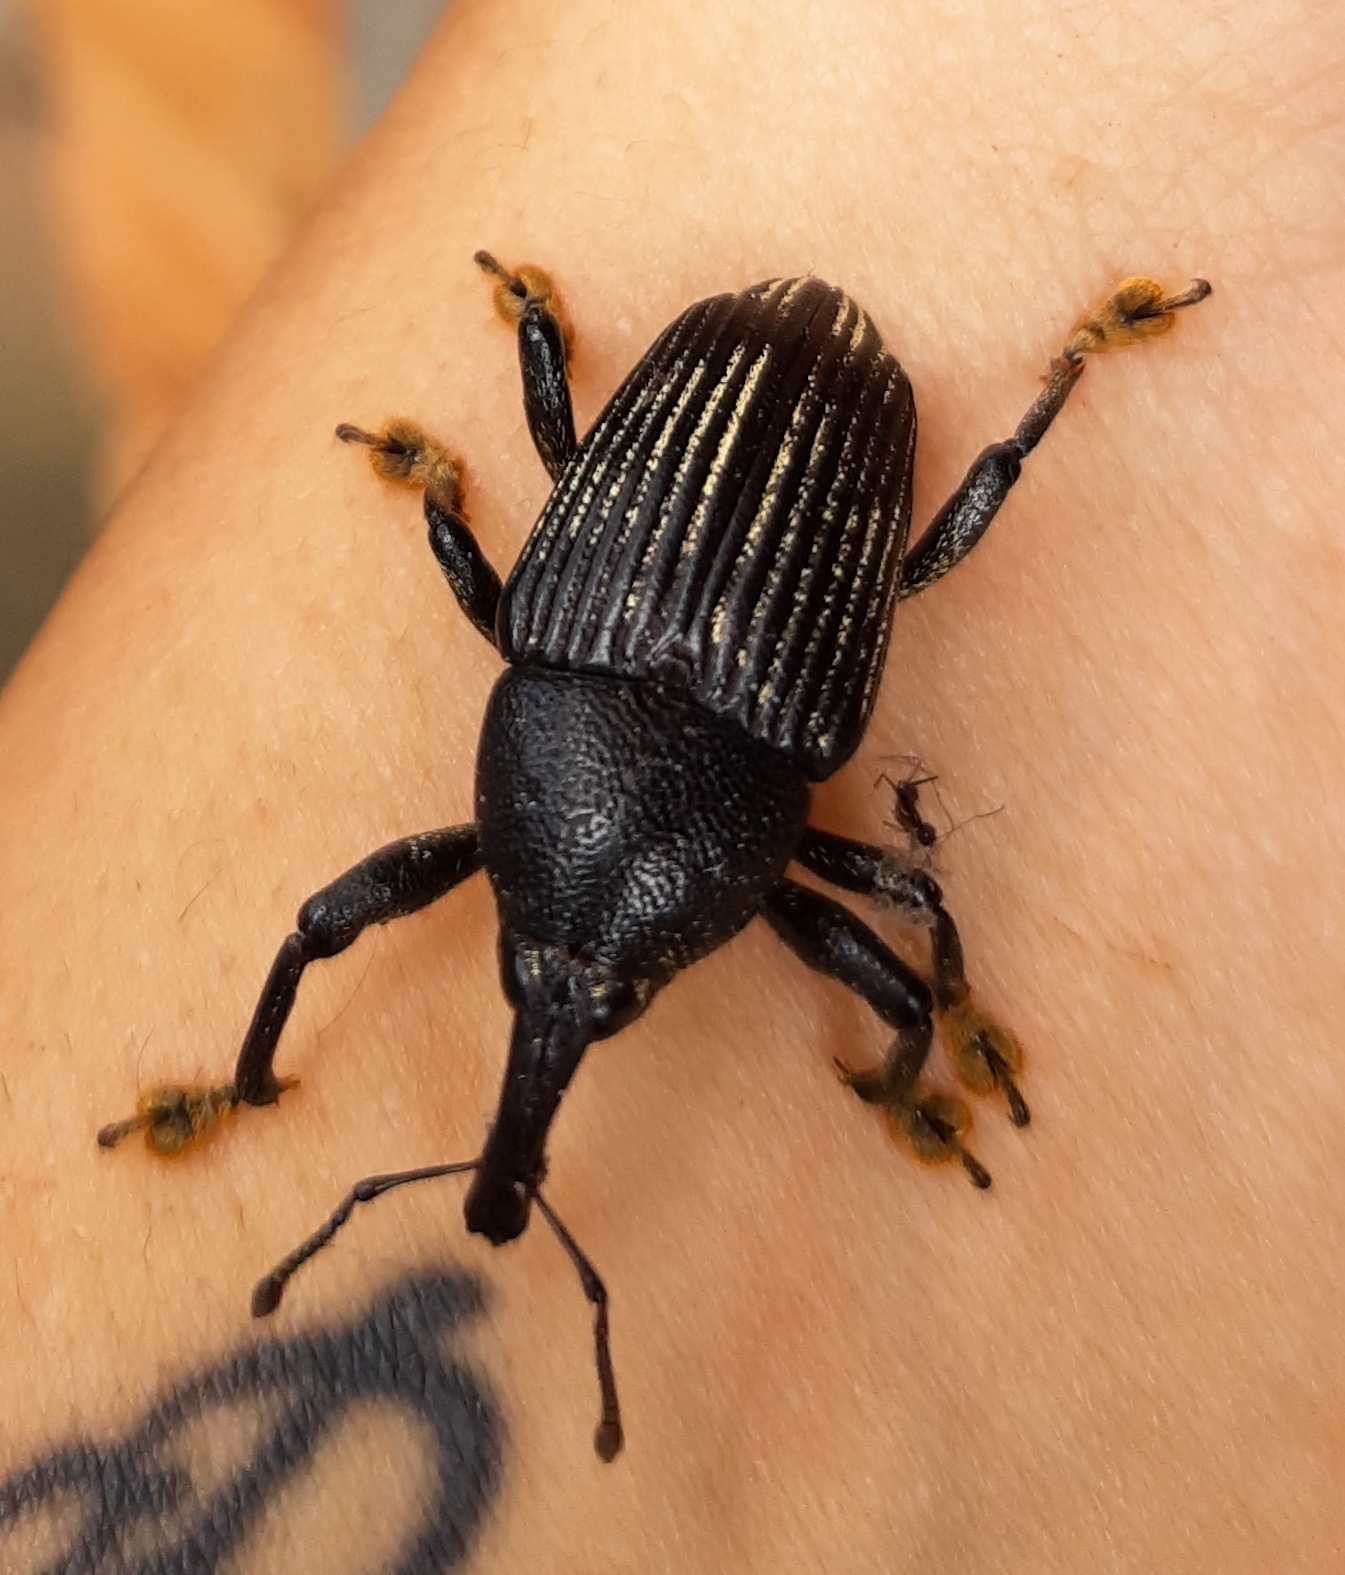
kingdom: Animalia
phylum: Arthropoda
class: Insecta
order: Coleoptera
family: Curculionidae
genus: Cholus
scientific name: Cholus parallelogrammus
